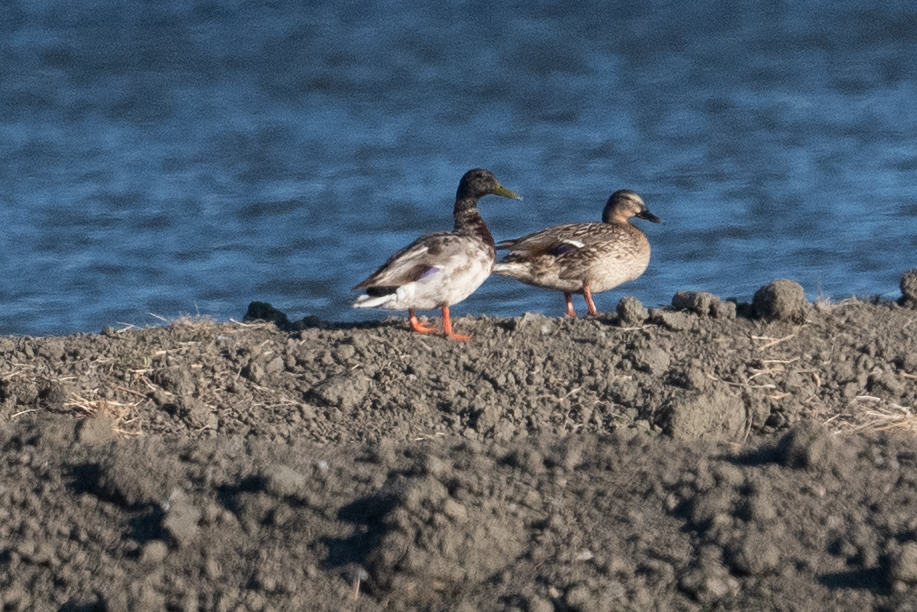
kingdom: Animalia
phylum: Chordata
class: Aves
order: Anseriformes
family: Anatidae
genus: Anas
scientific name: Anas platyrhynchos
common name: Mallard
